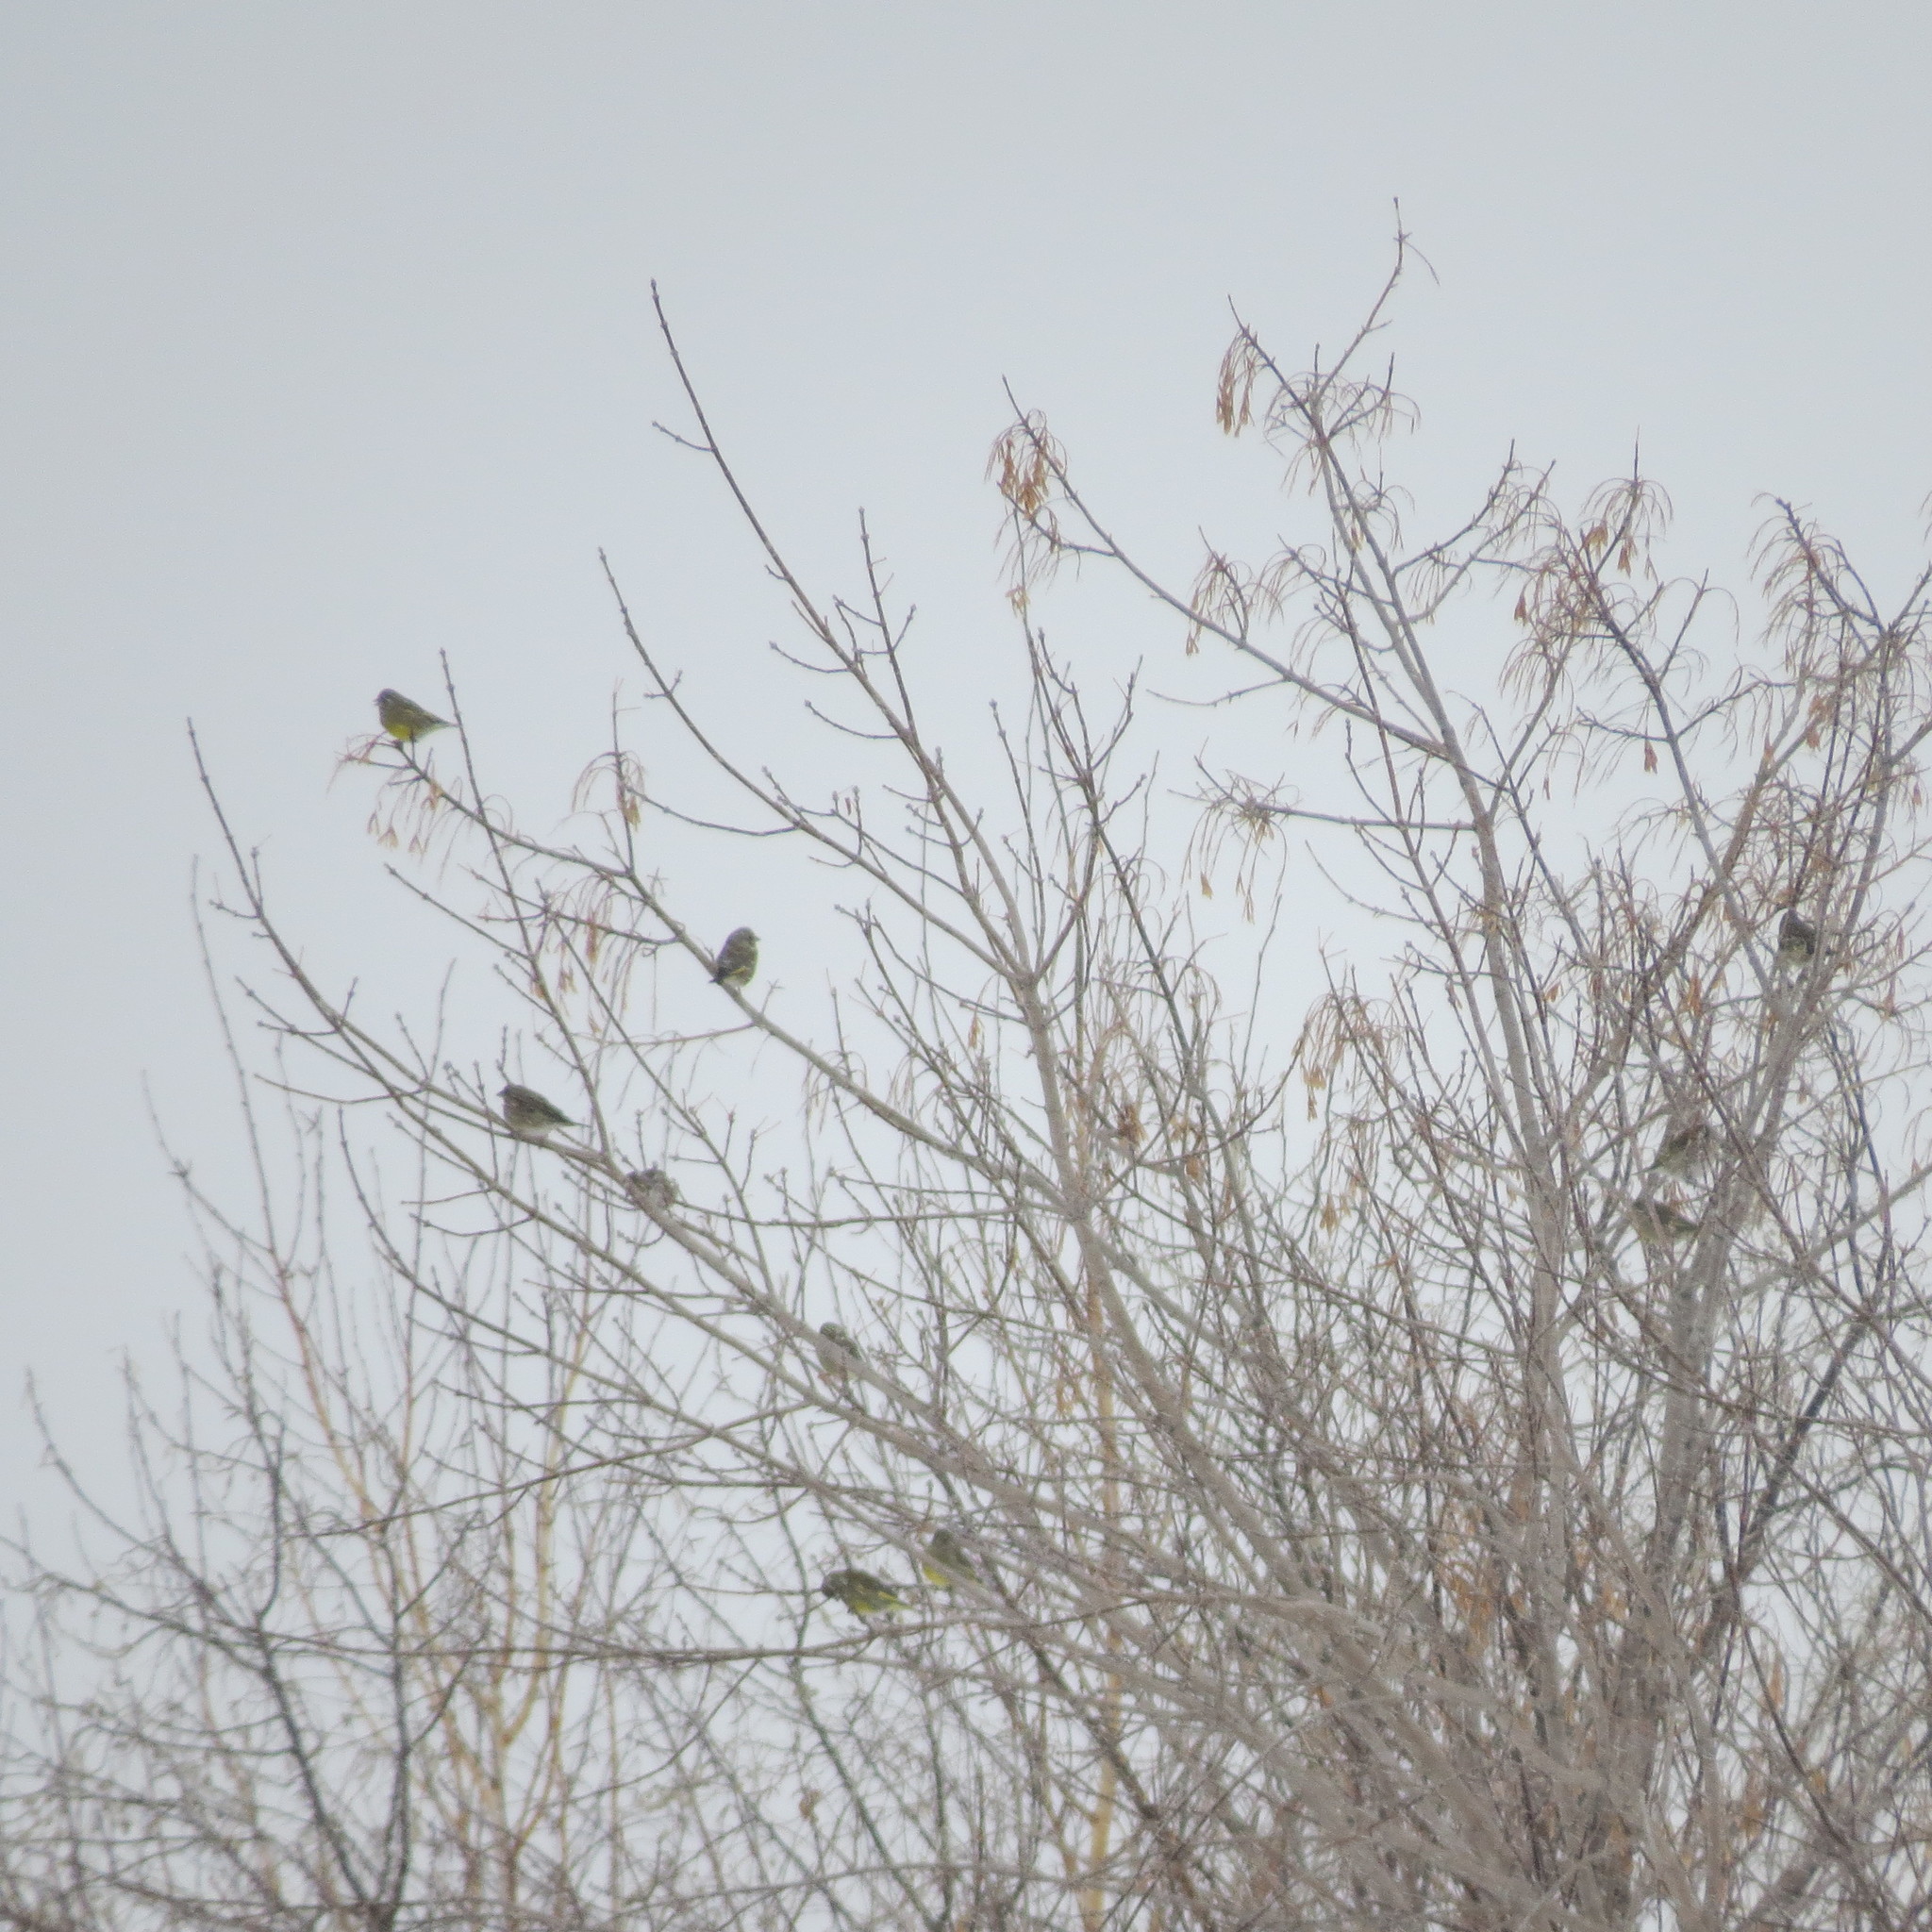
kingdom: Plantae
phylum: Tracheophyta
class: Liliopsida
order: Poales
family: Poaceae
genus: Chloris
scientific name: Chloris chloris
